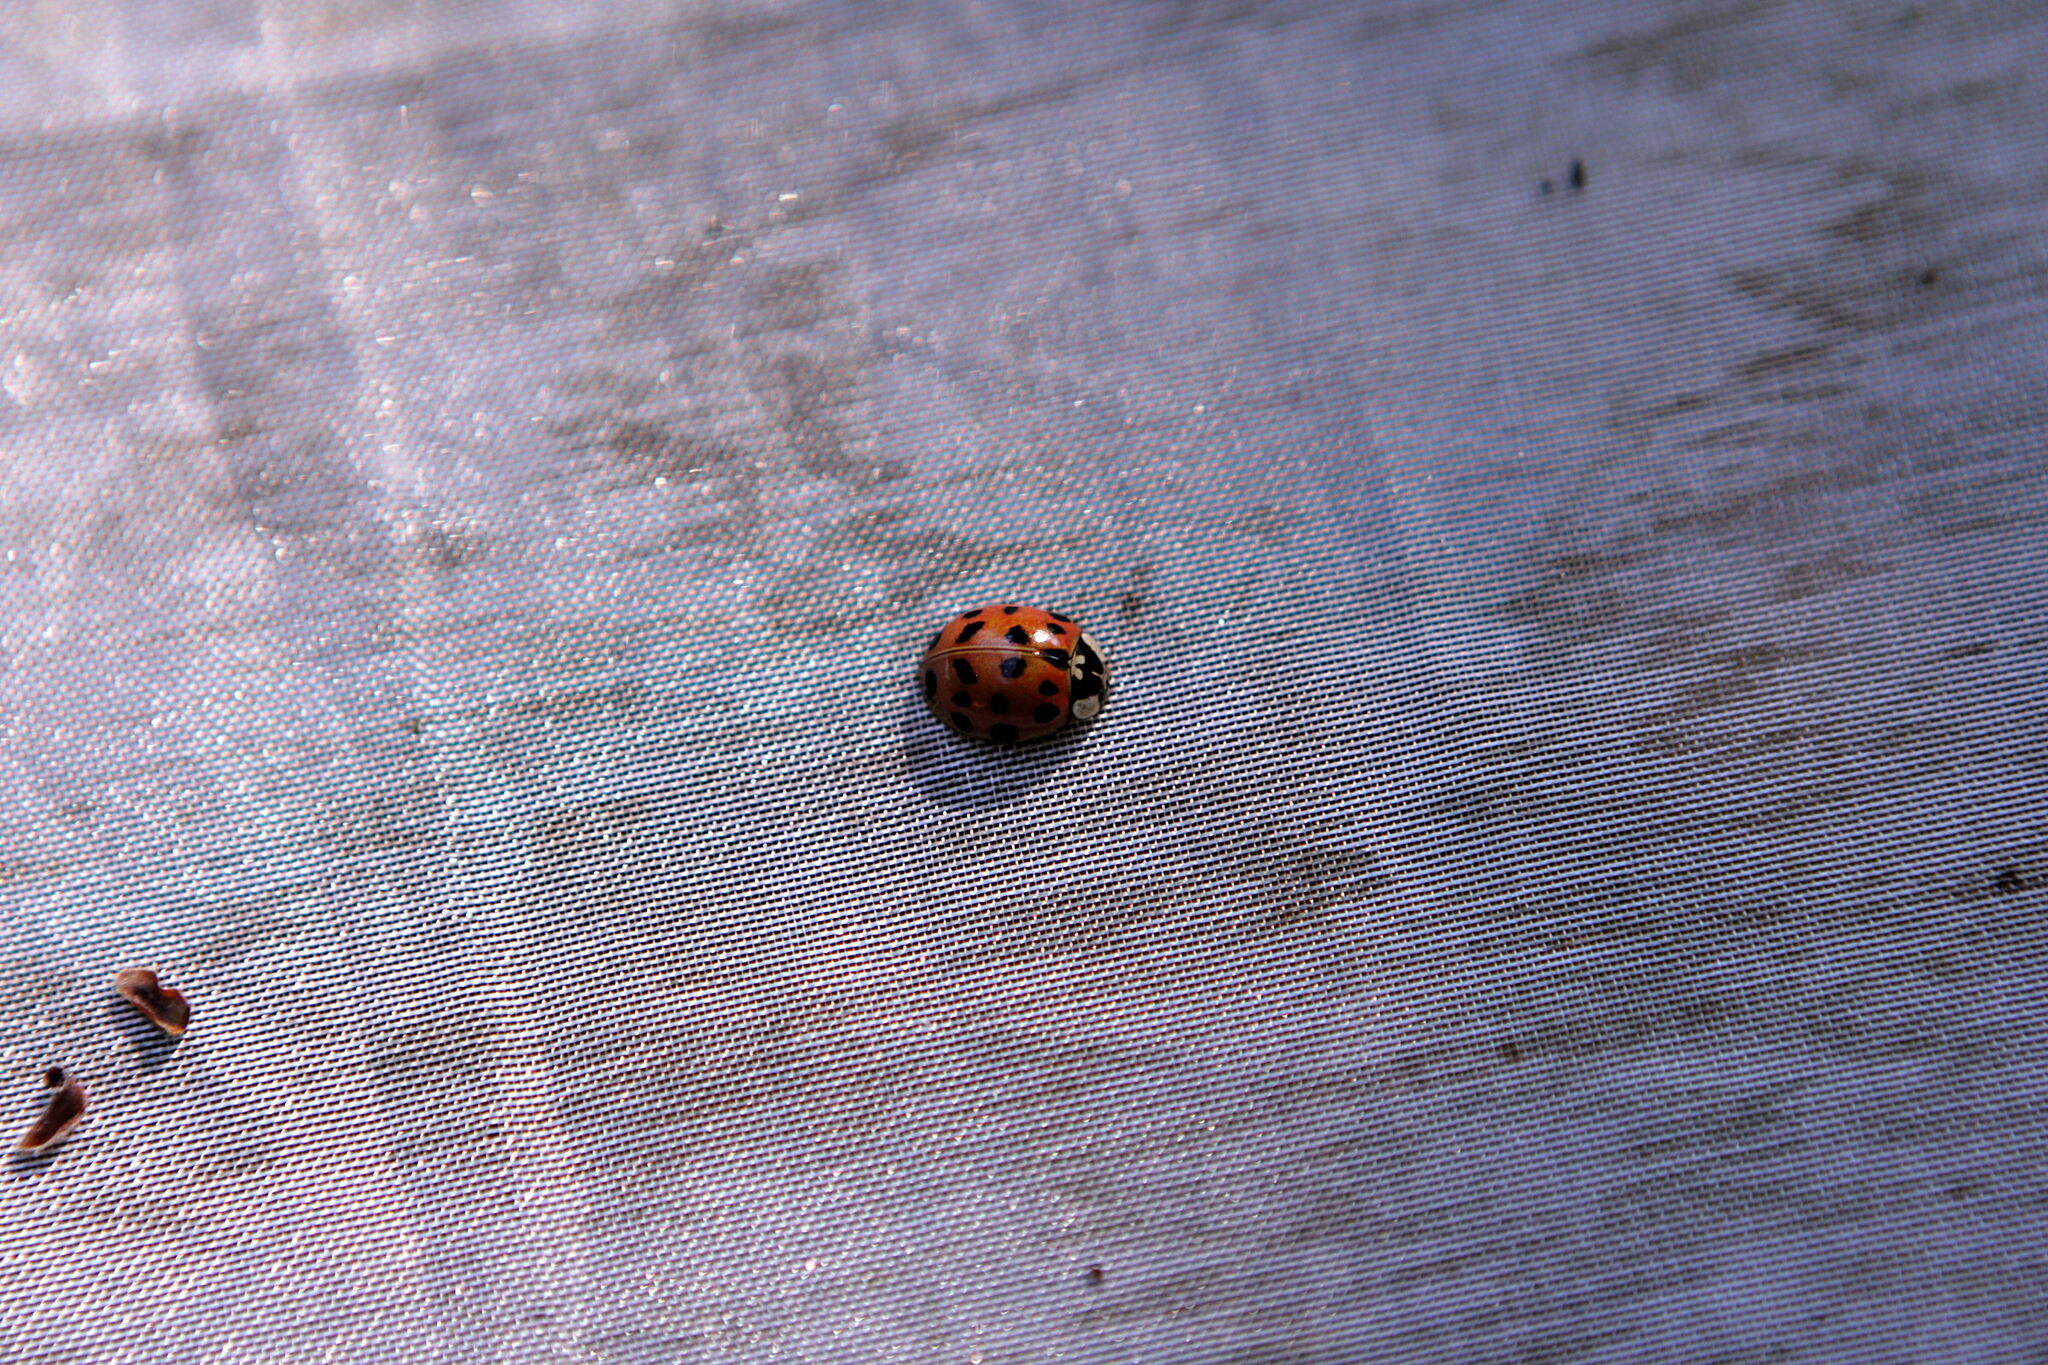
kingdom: Animalia
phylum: Arthropoda
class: Insecta
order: Coleoptera
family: Coccinellidae
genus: Harmonia
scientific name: Harmonia axyridis
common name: Harlequin ladybird
